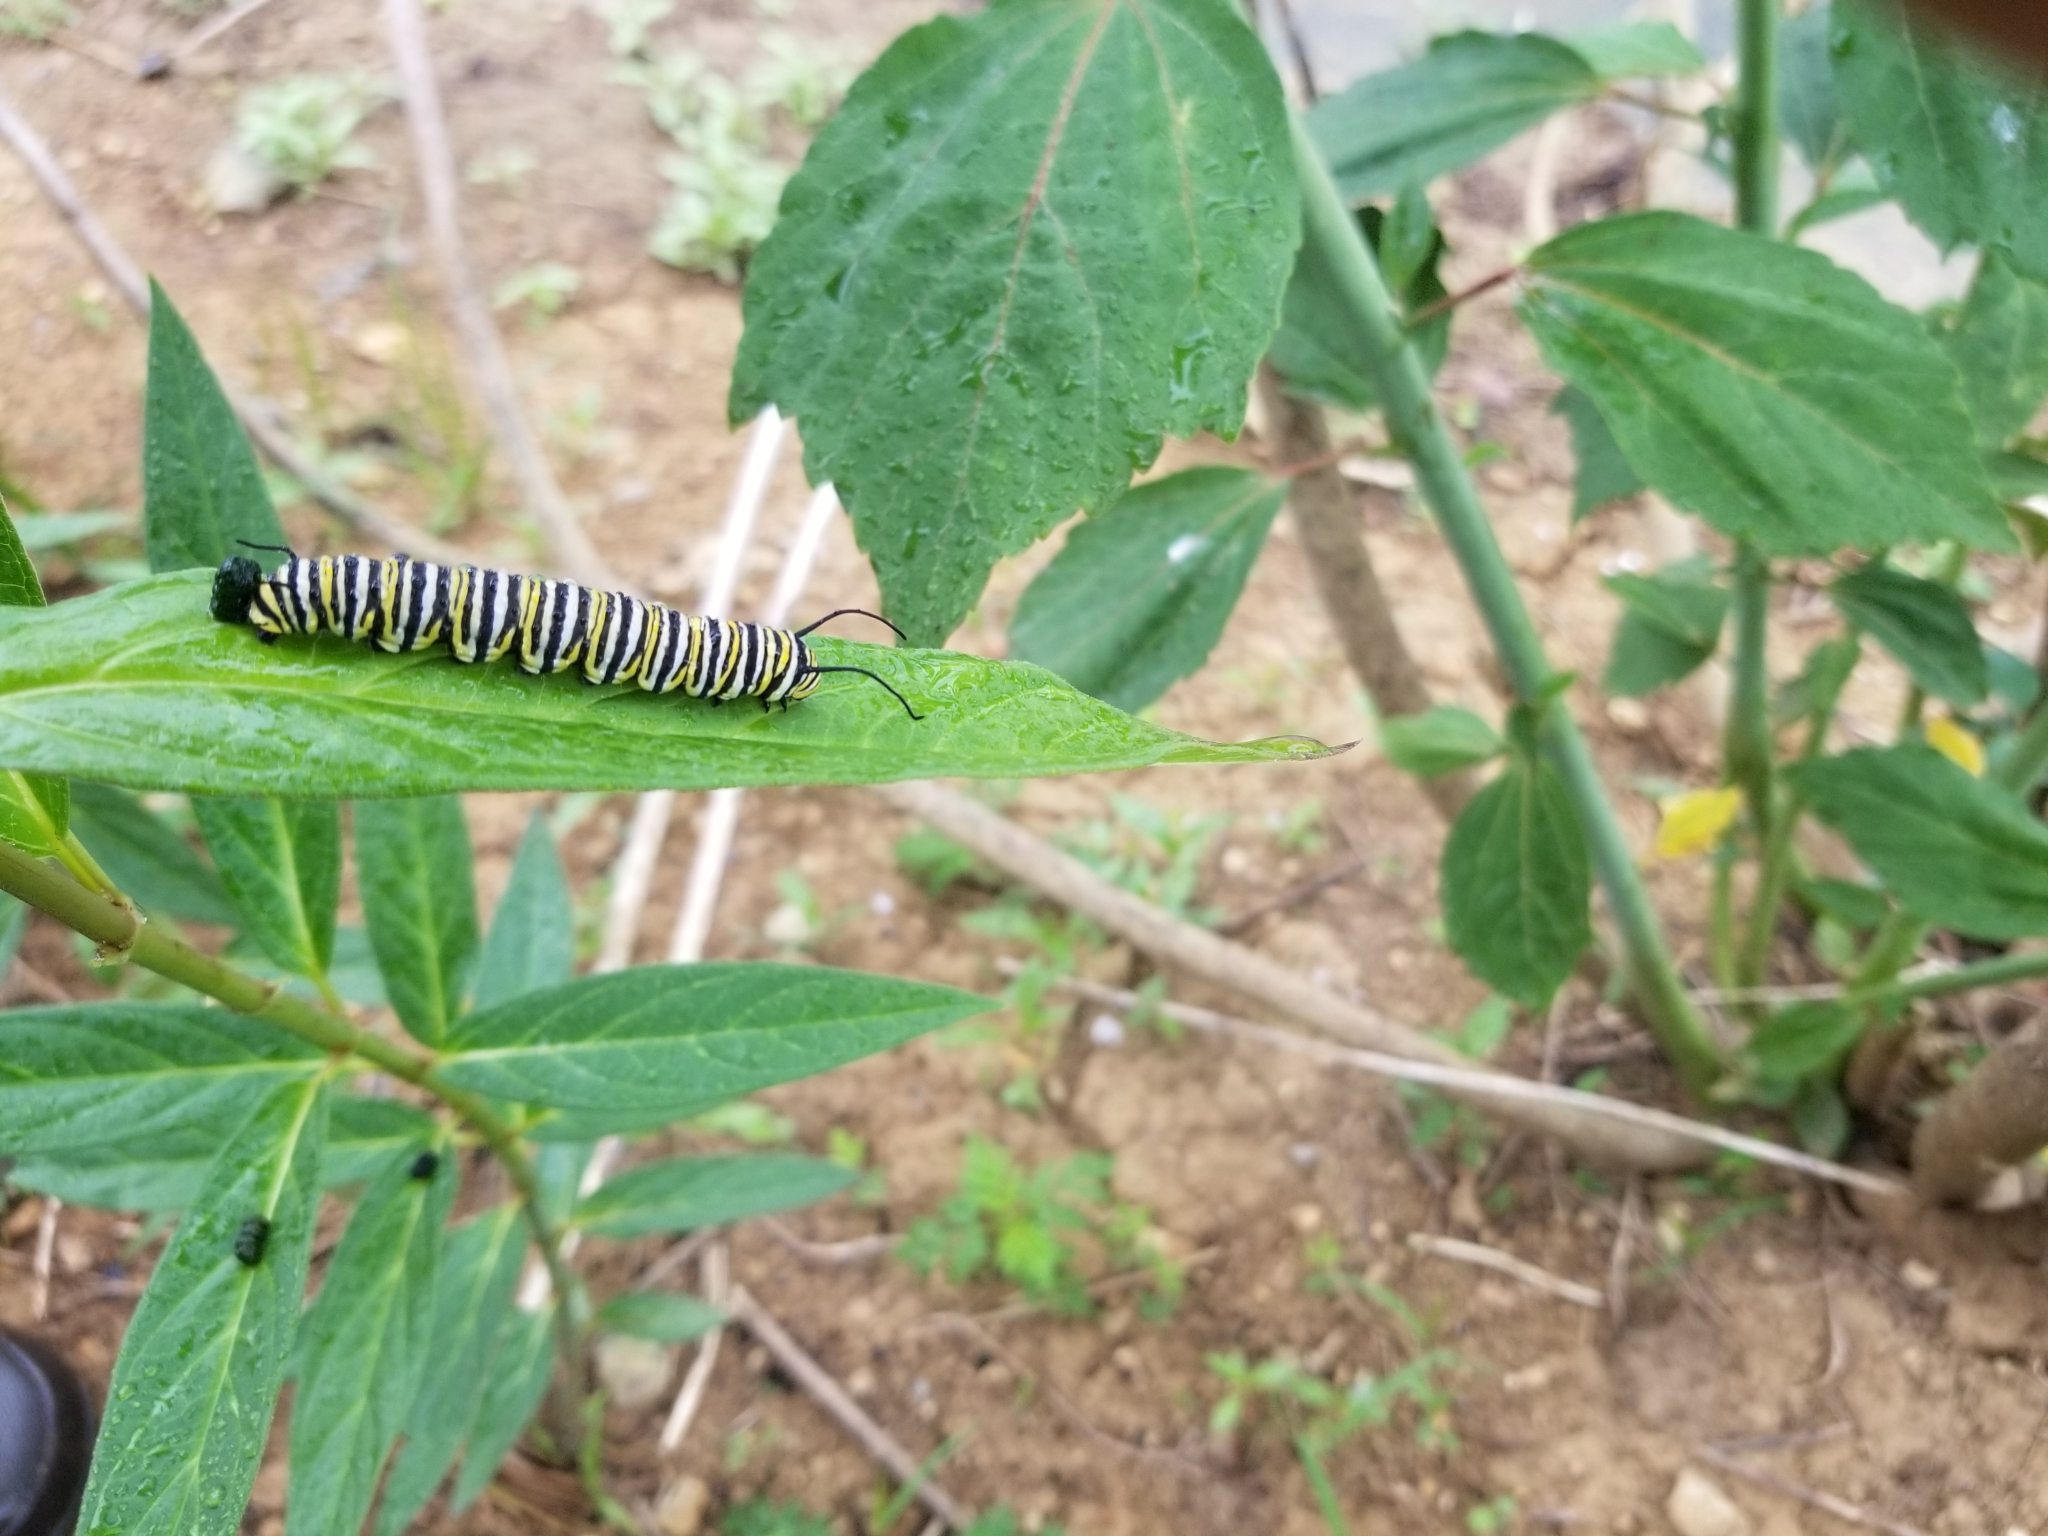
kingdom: Animalia
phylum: Arthropoda
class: Insecta
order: Lepidoptera
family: Nymphalidae
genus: Danaus
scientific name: Danaus plexippus
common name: Monarch
